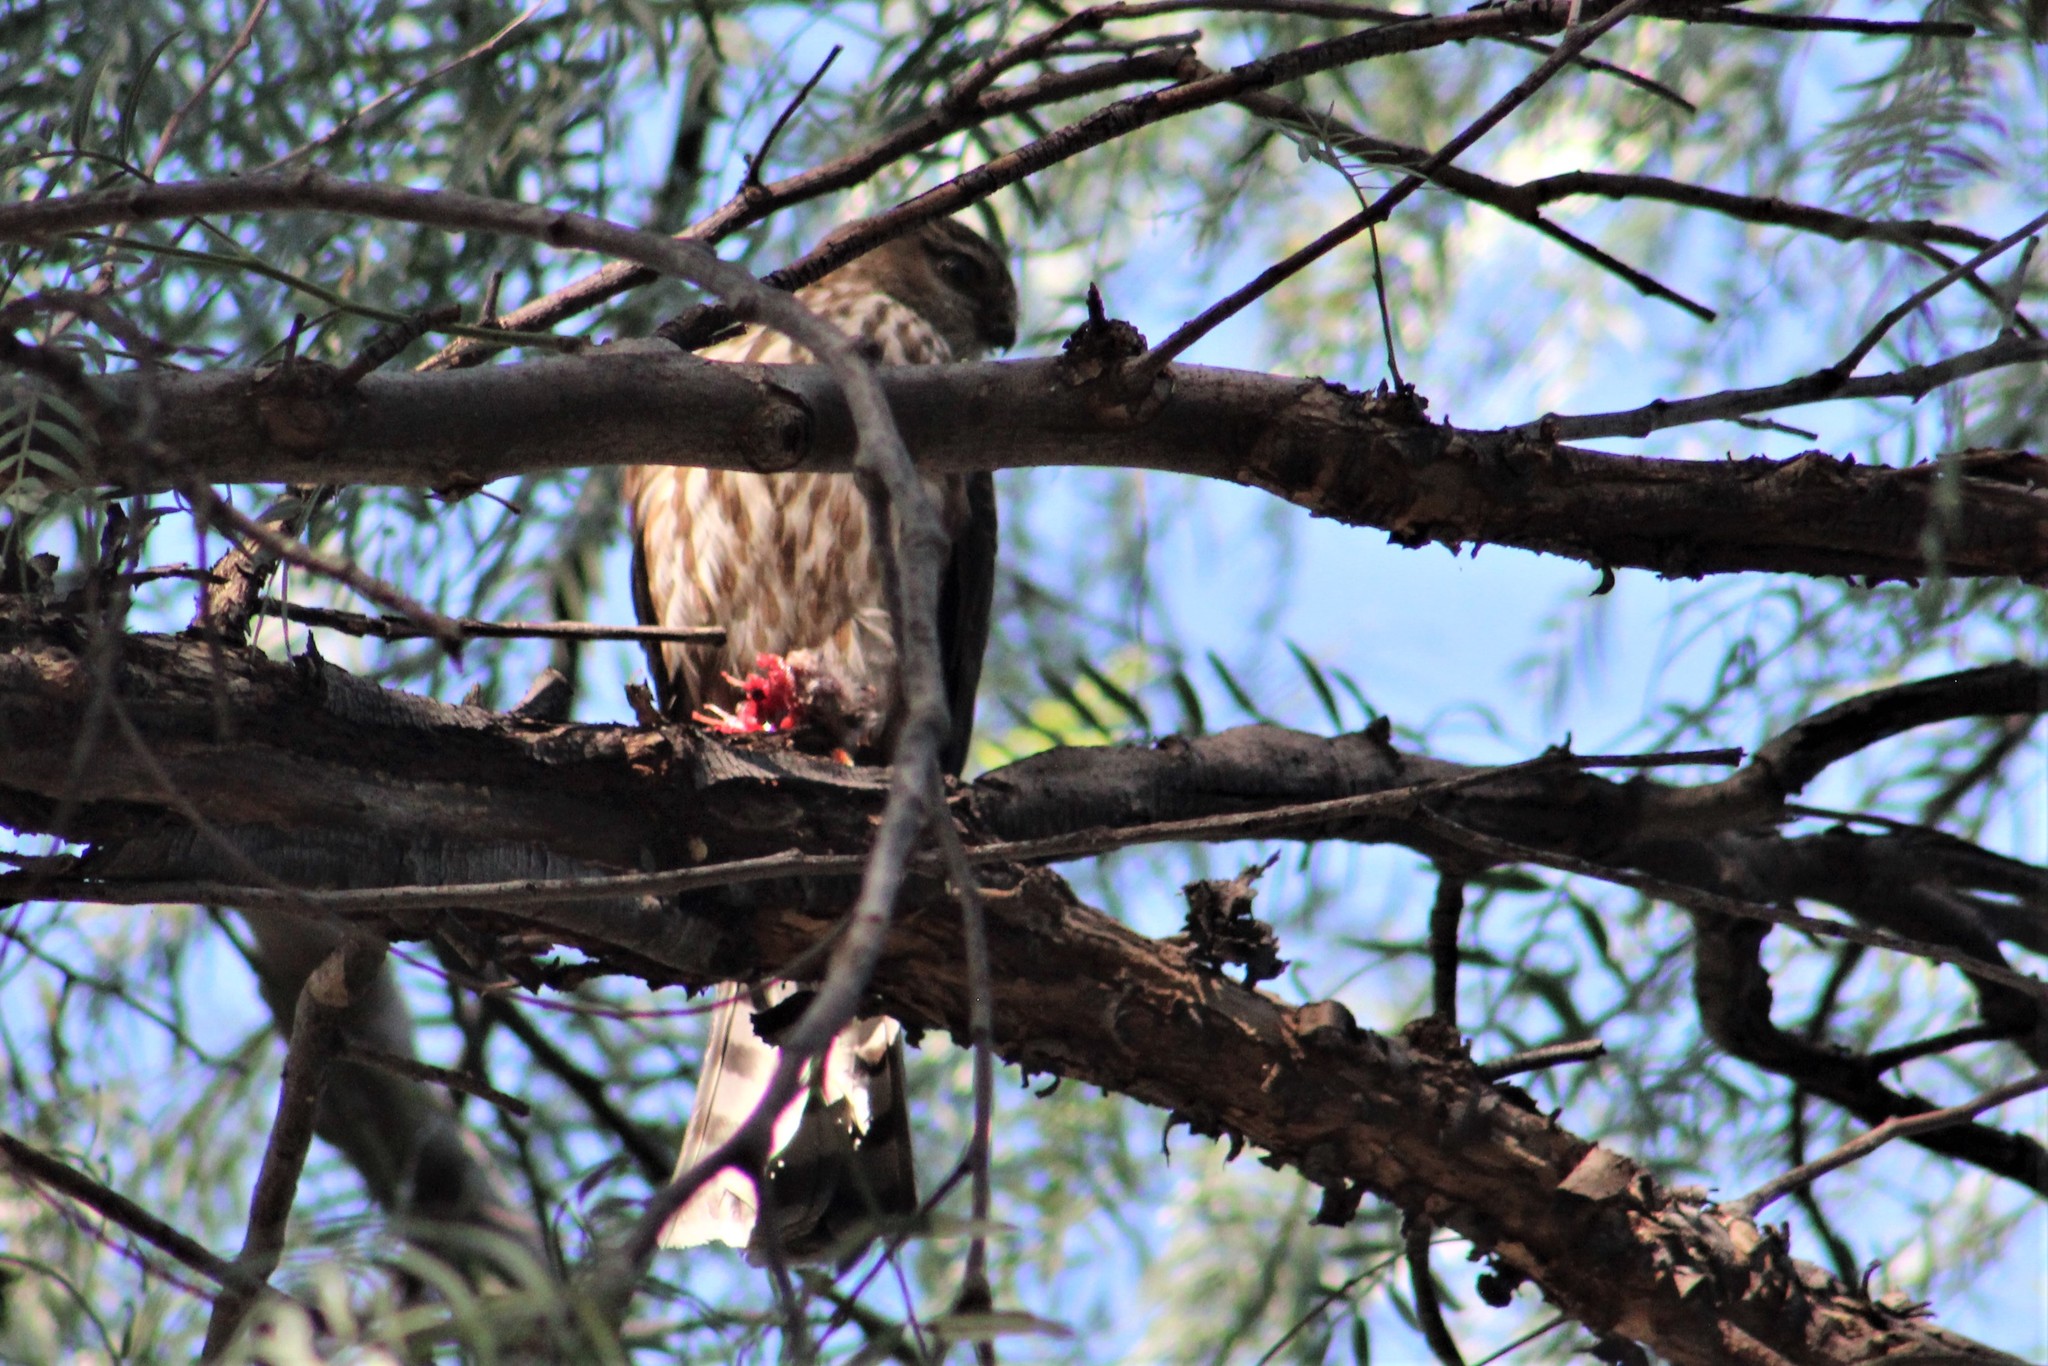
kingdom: Animalia
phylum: Chordata
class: Aves
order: Accipitriformes
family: Accipitridae
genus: Accipiter
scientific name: Accipiter striatus
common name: Sharp-shinned hawk
